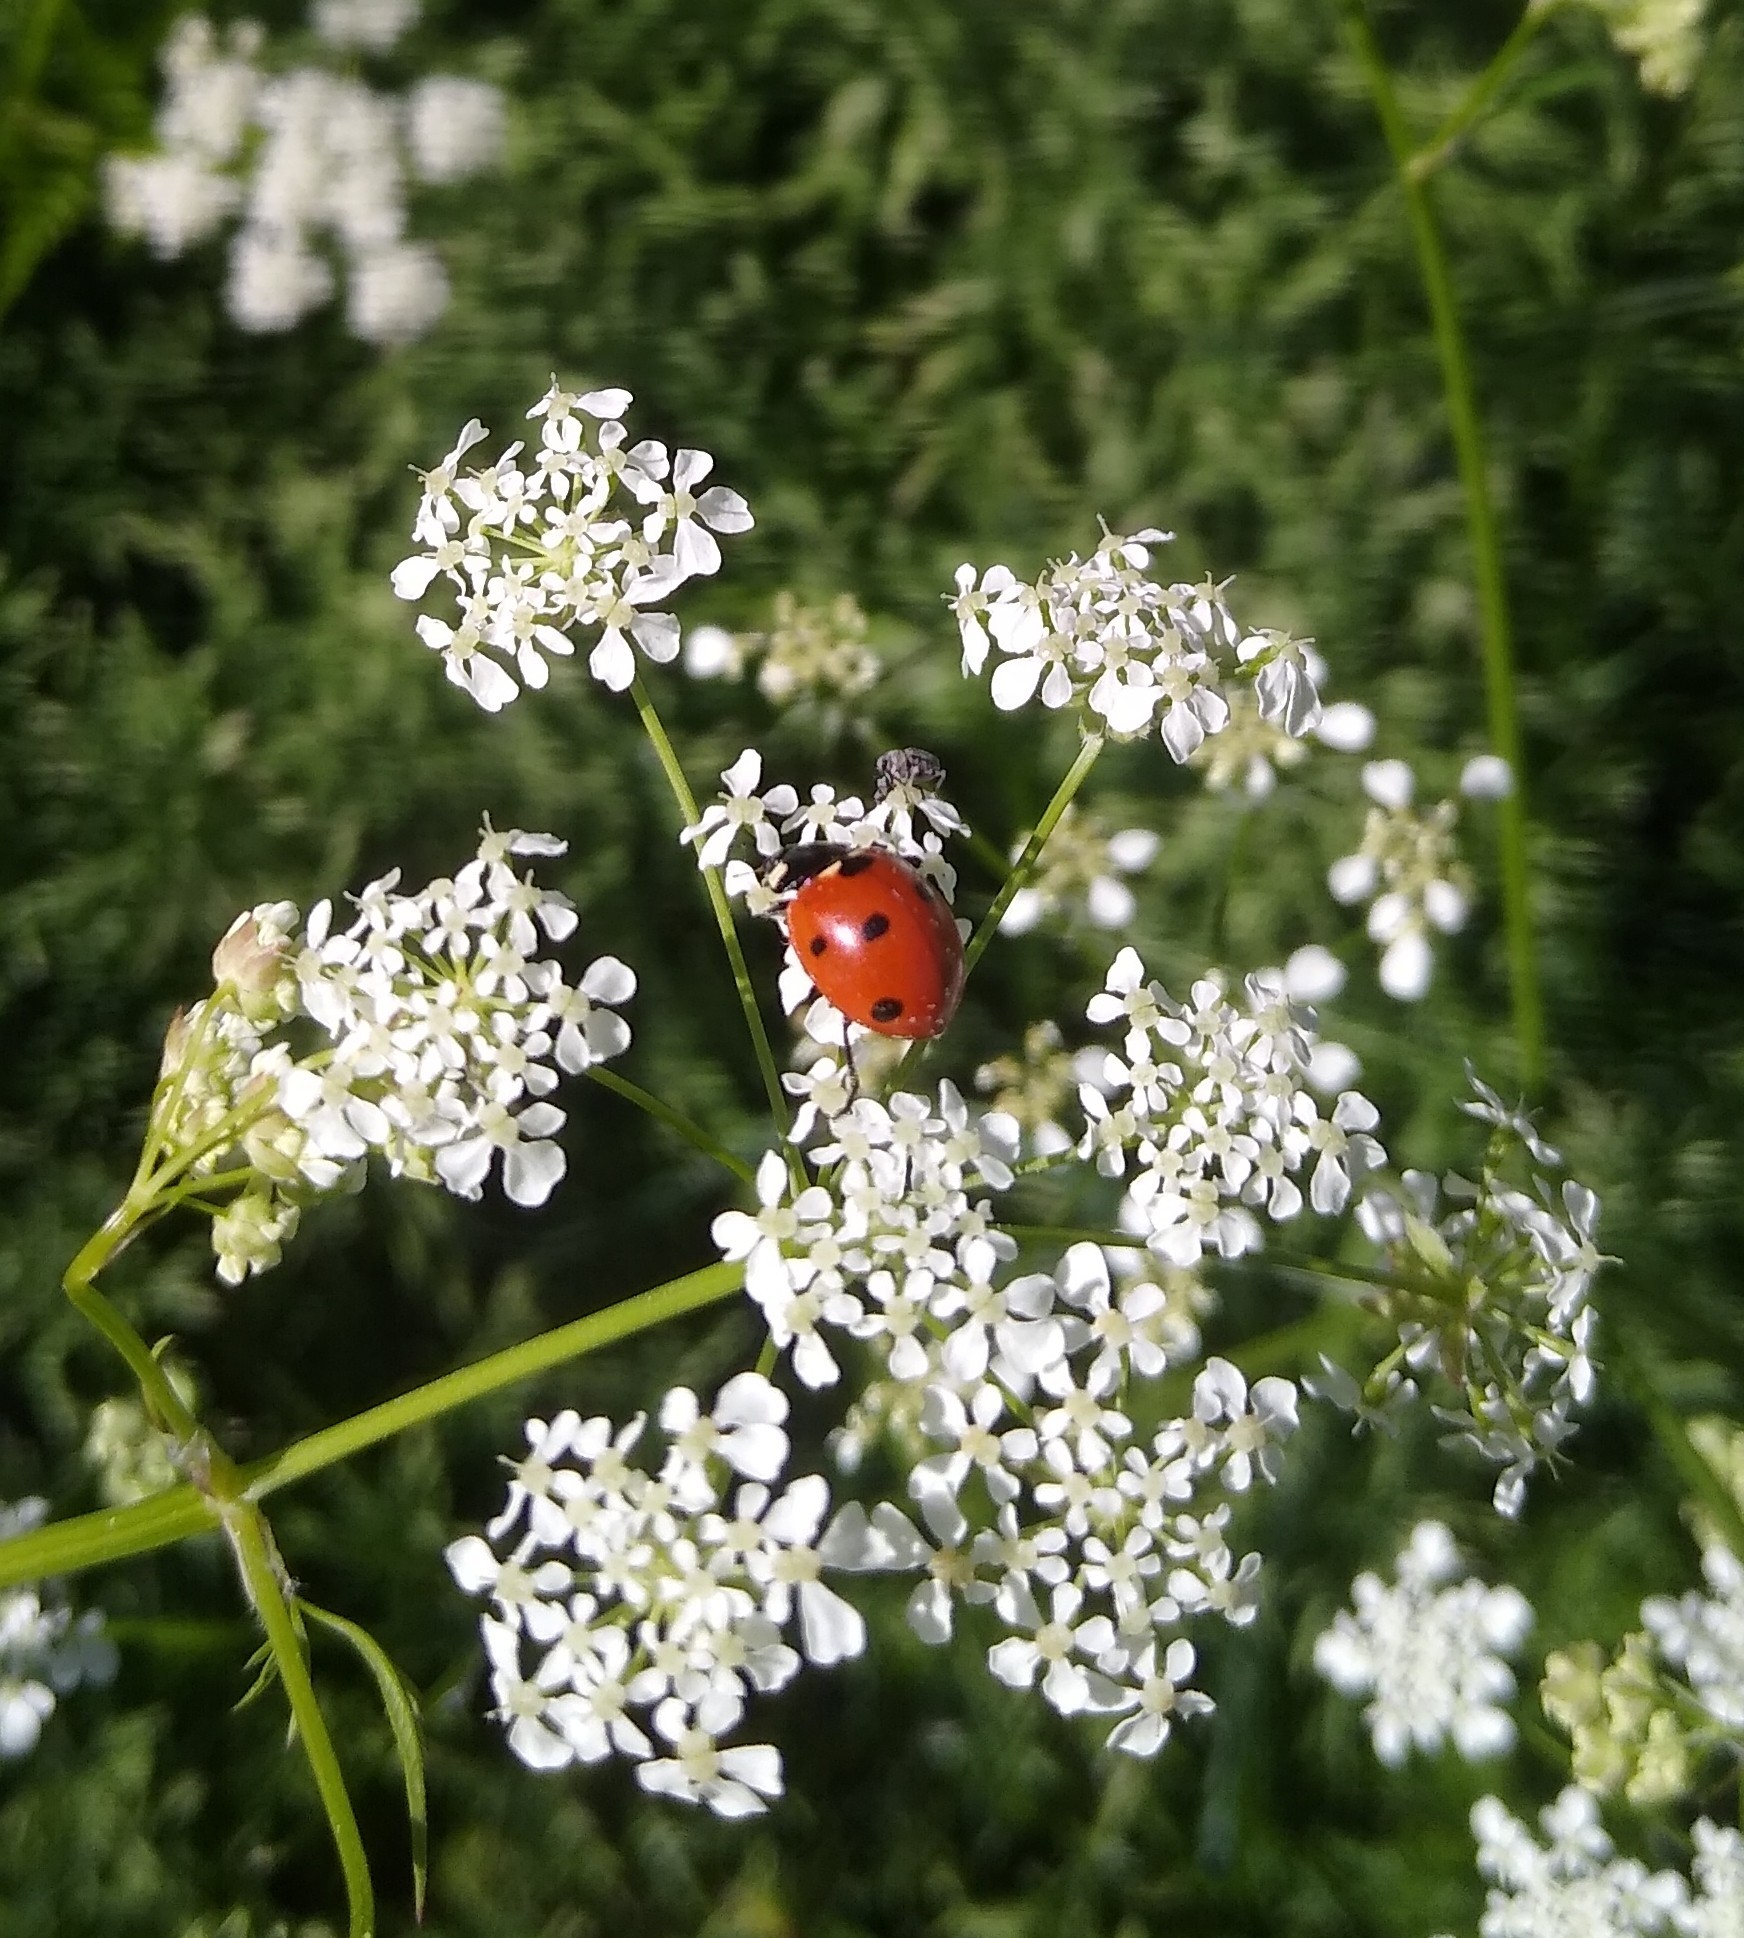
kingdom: Animalia
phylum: Arthropoda
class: Insecta
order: Coleoptera
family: Coccinellidae
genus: Coccinella
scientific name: Coccinella septempunctata
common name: Sevenspotted lady beetle
